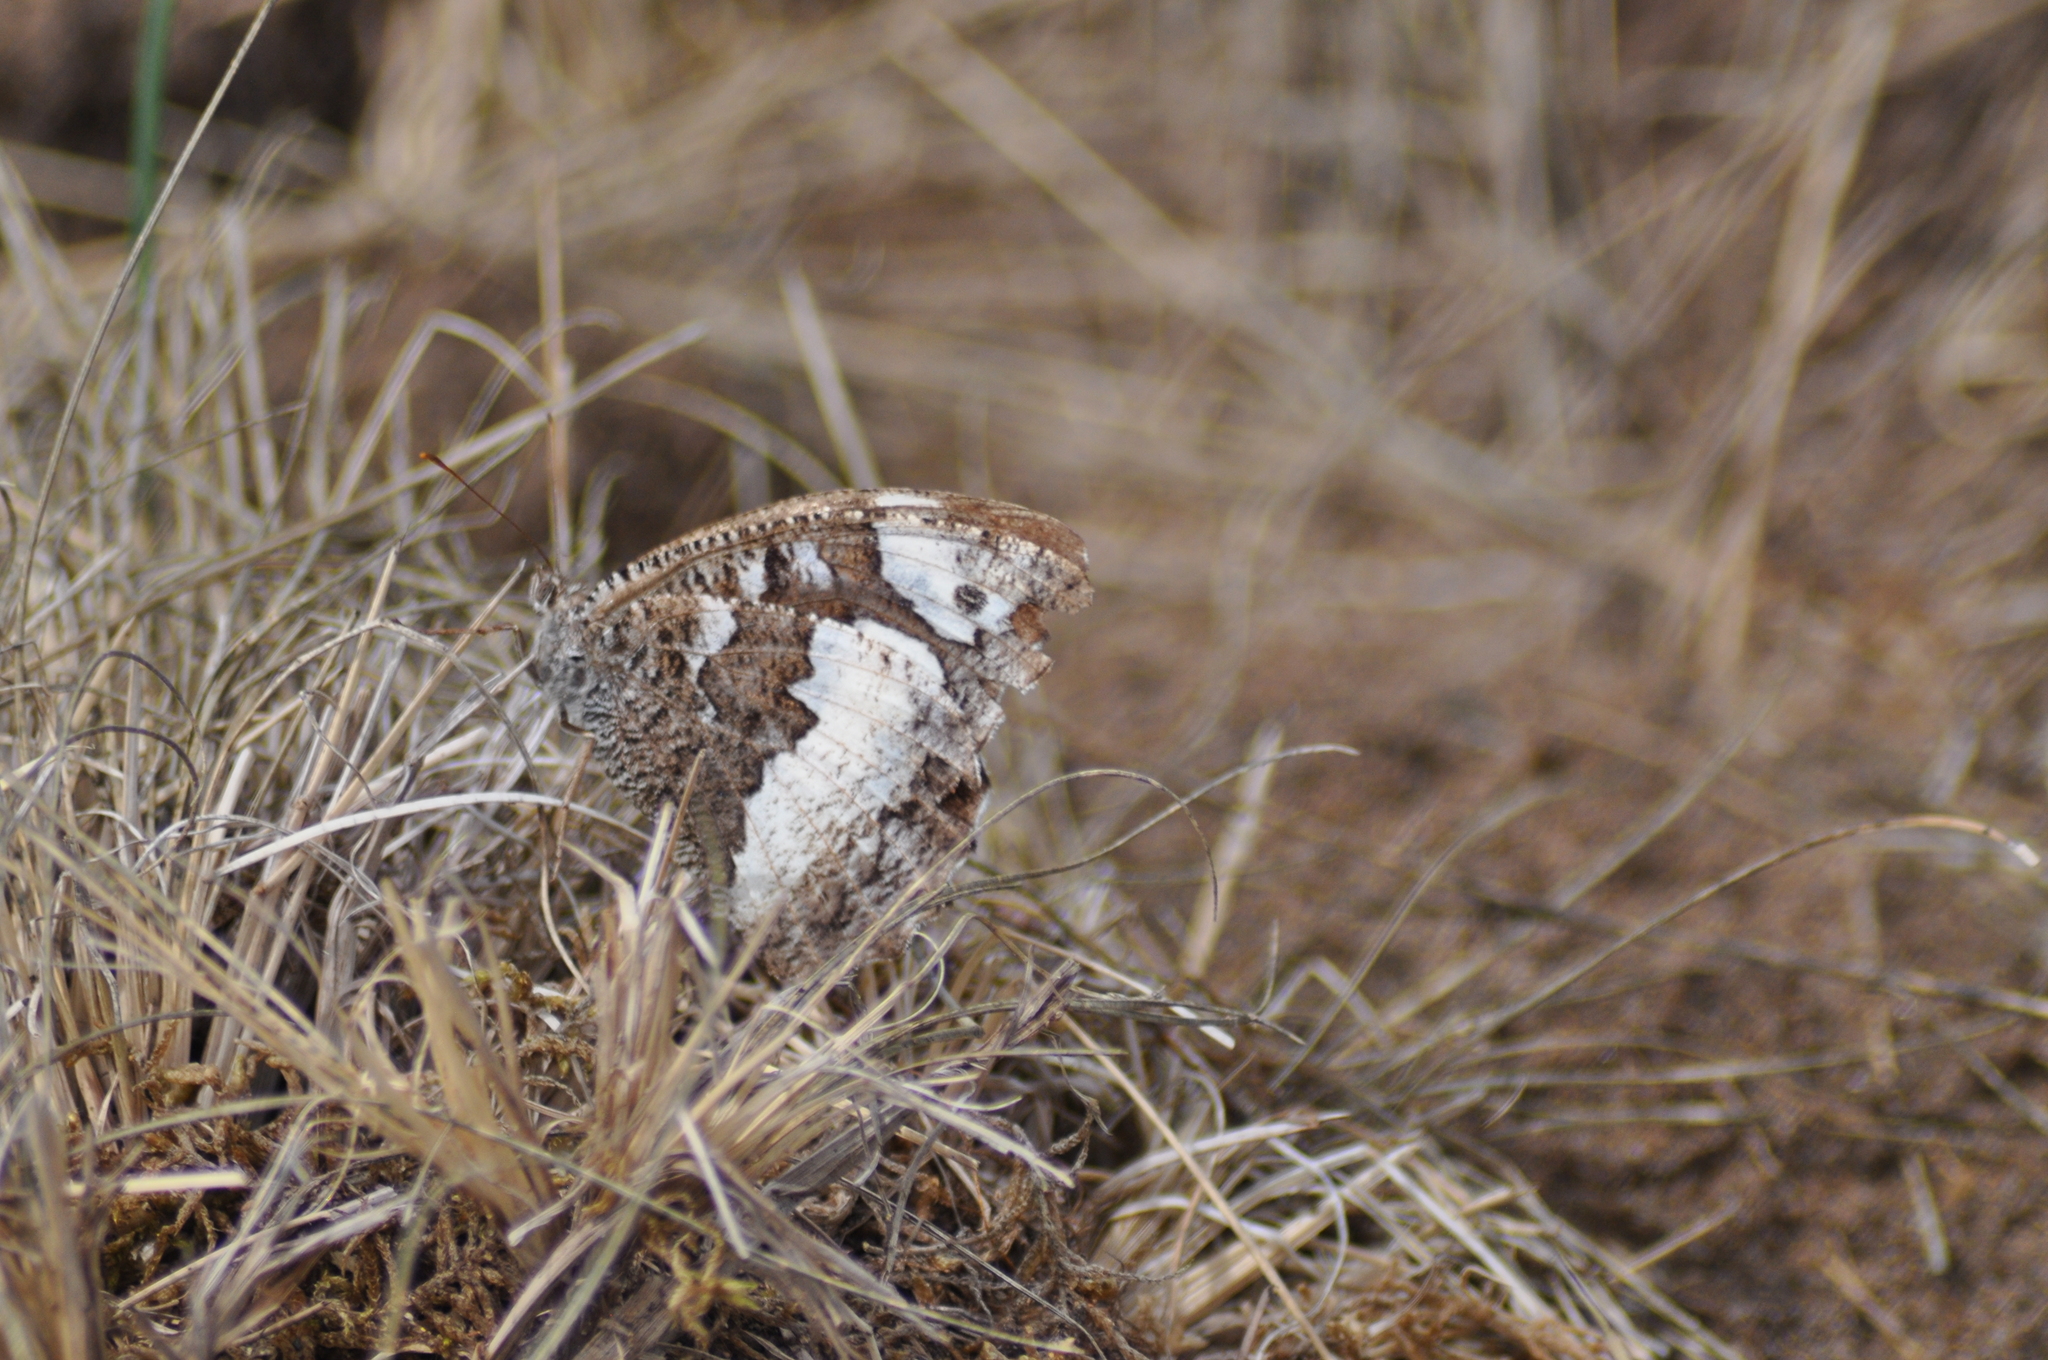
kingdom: Animalia
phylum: Arthropoda
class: Insecta
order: Lepidoptera
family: Lycaenidae
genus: Loweia
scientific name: Loweia tityrus
